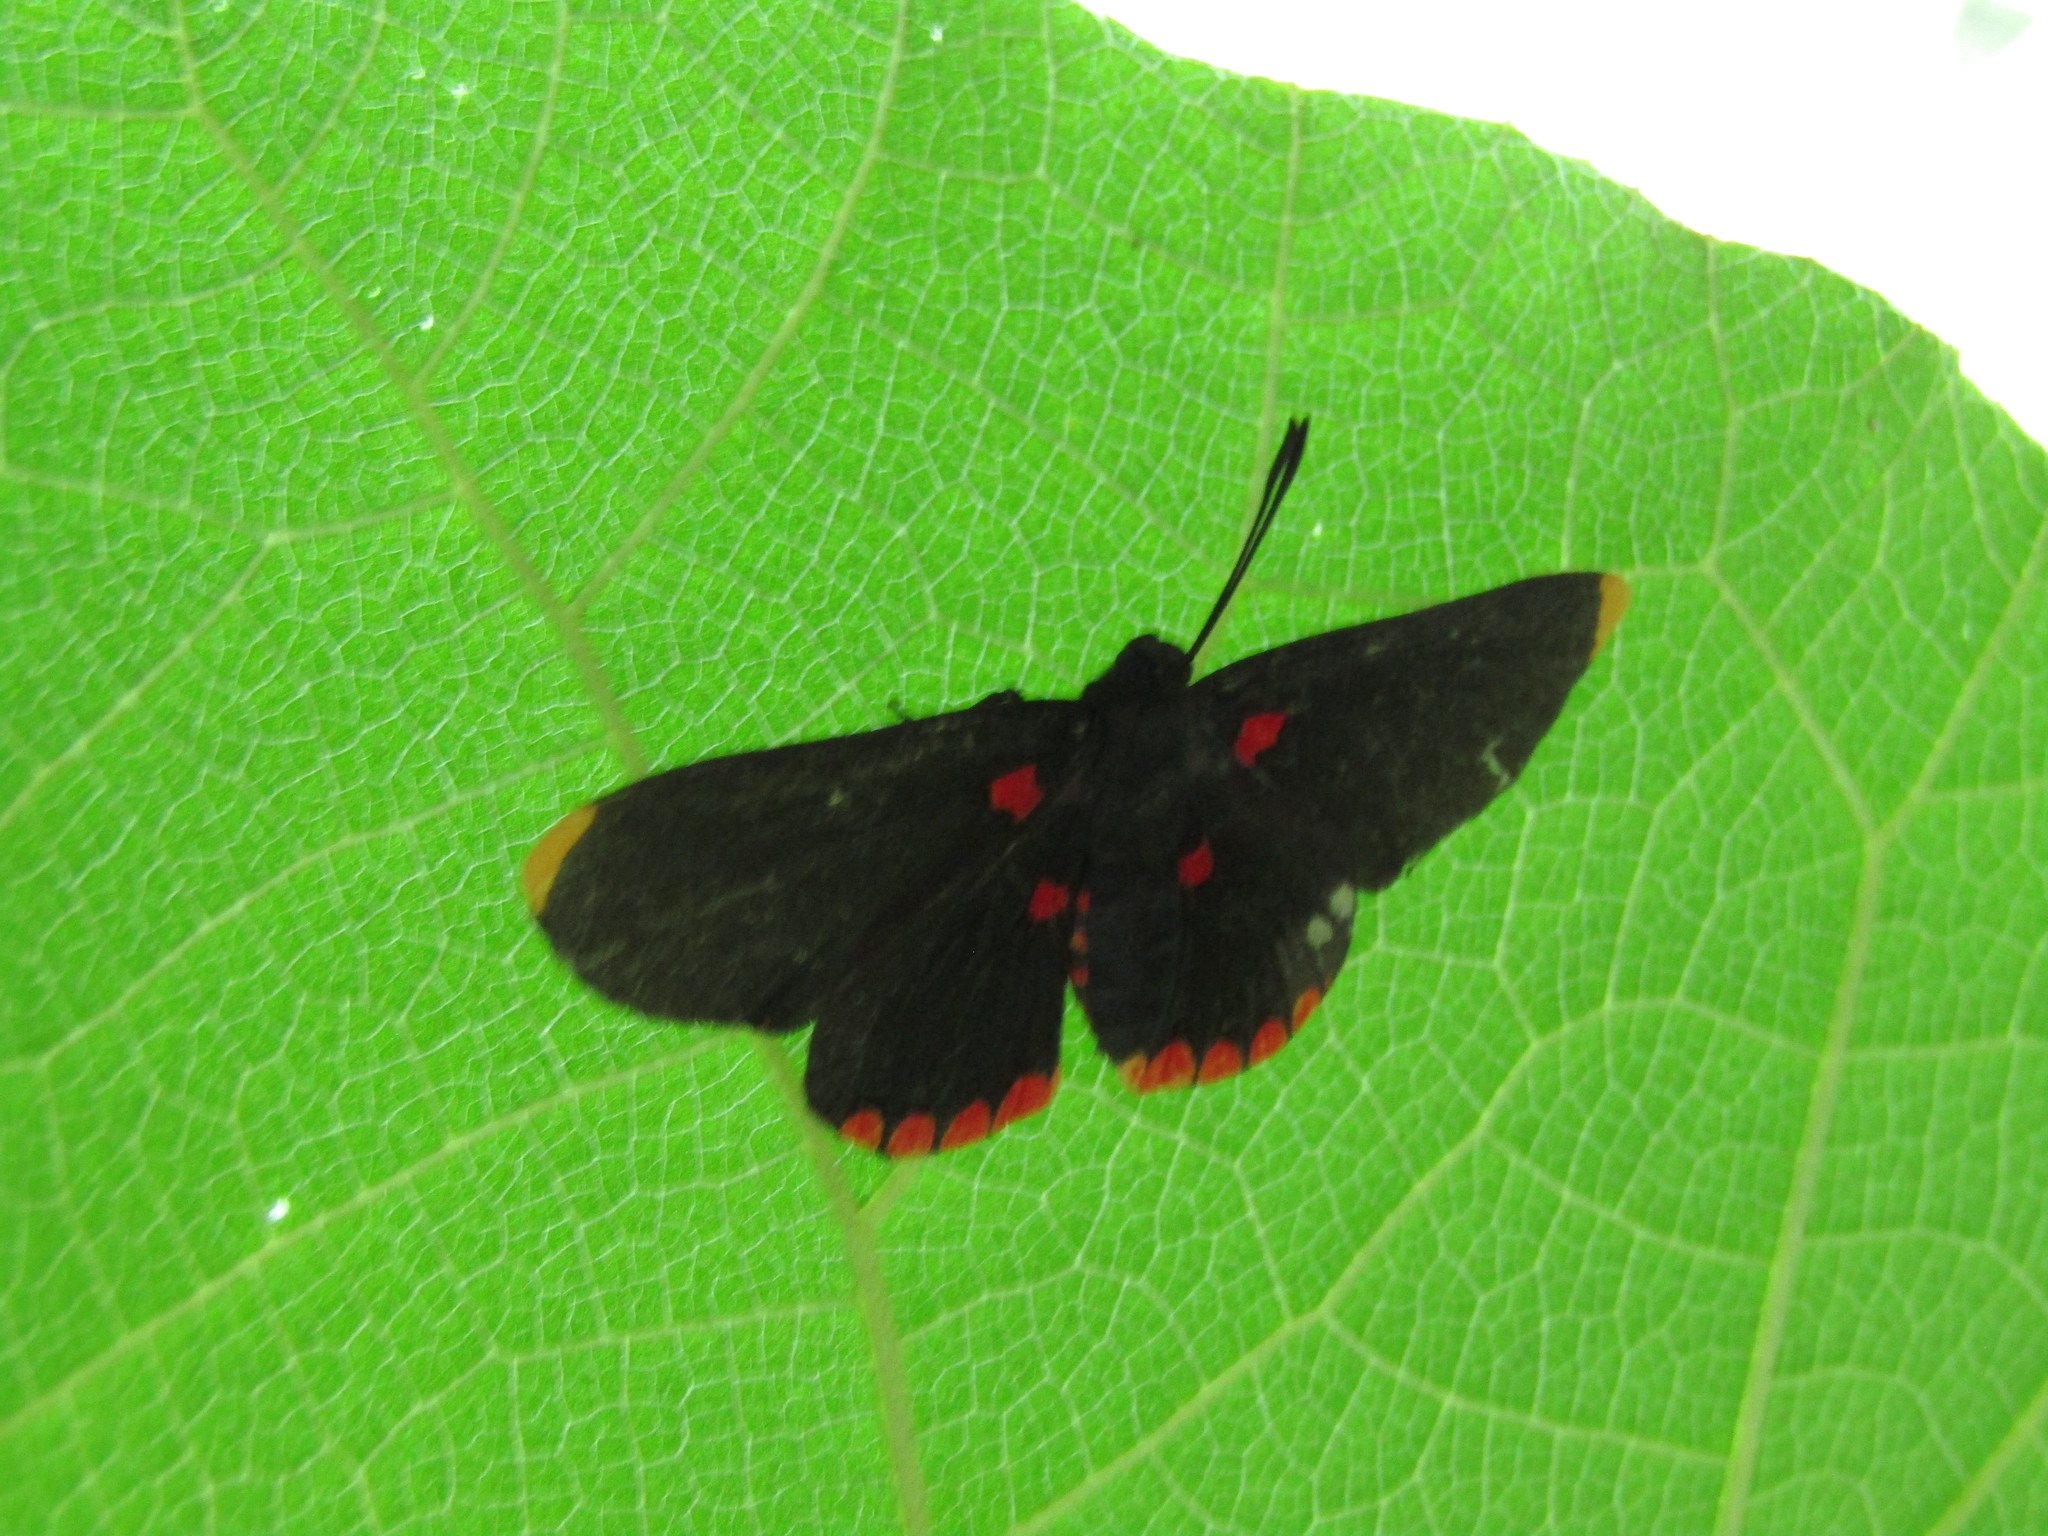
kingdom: Animalia
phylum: Arthropoda
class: Insecta
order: Lepidoptera
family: Lycaenidae
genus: Melanis
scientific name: Melanis pixe
